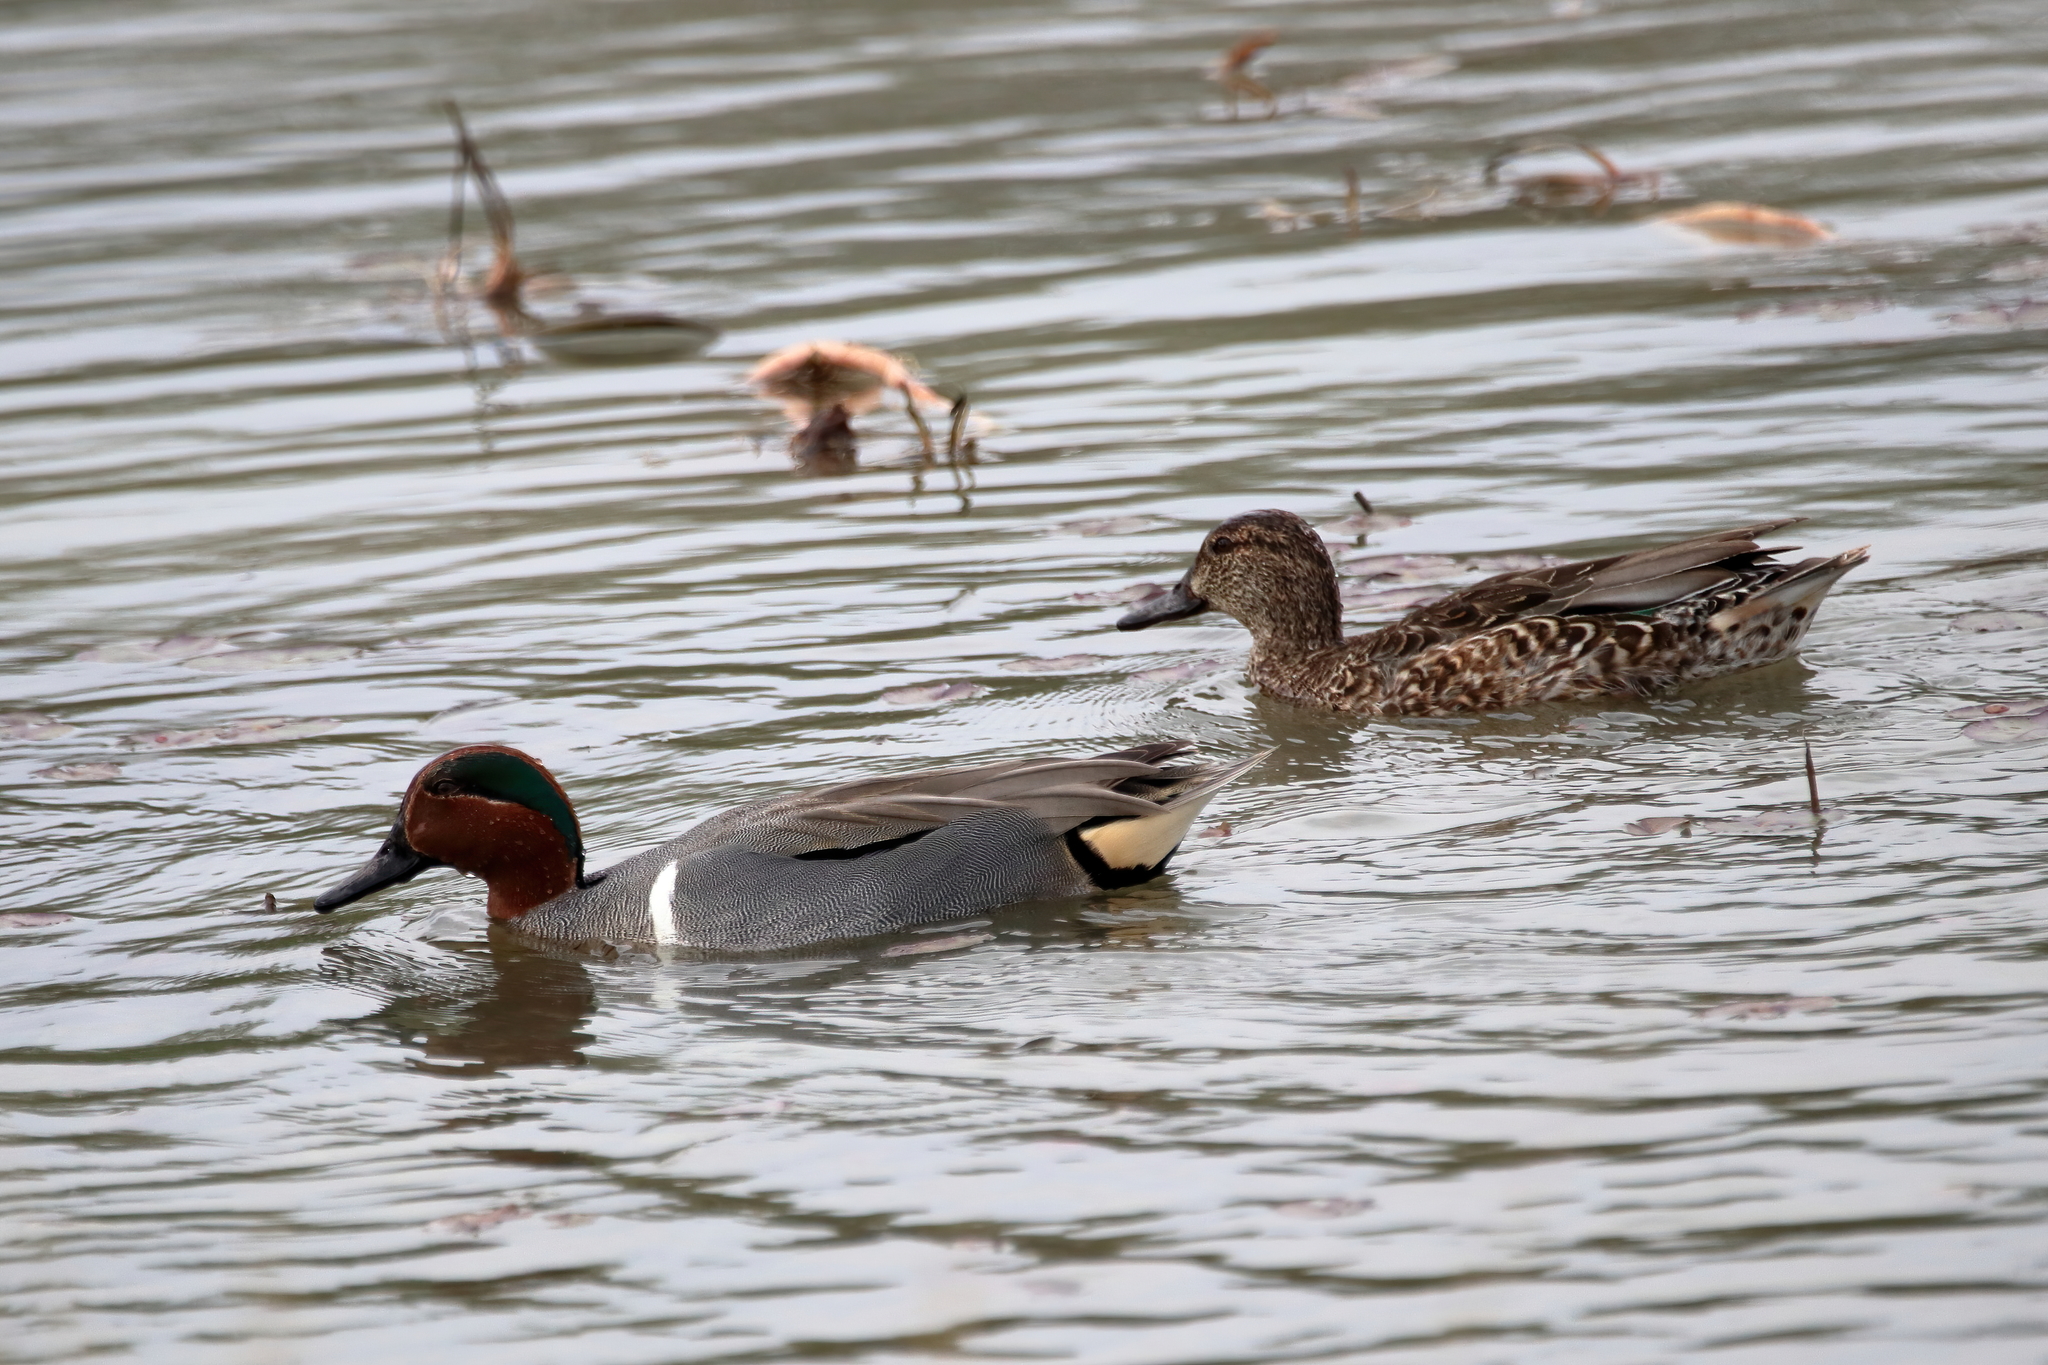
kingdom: Animalia
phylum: Chordata
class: Aves
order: Anseriformes
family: Anatidae
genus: Anas
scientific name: Anas crecca
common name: Eurasian teal
